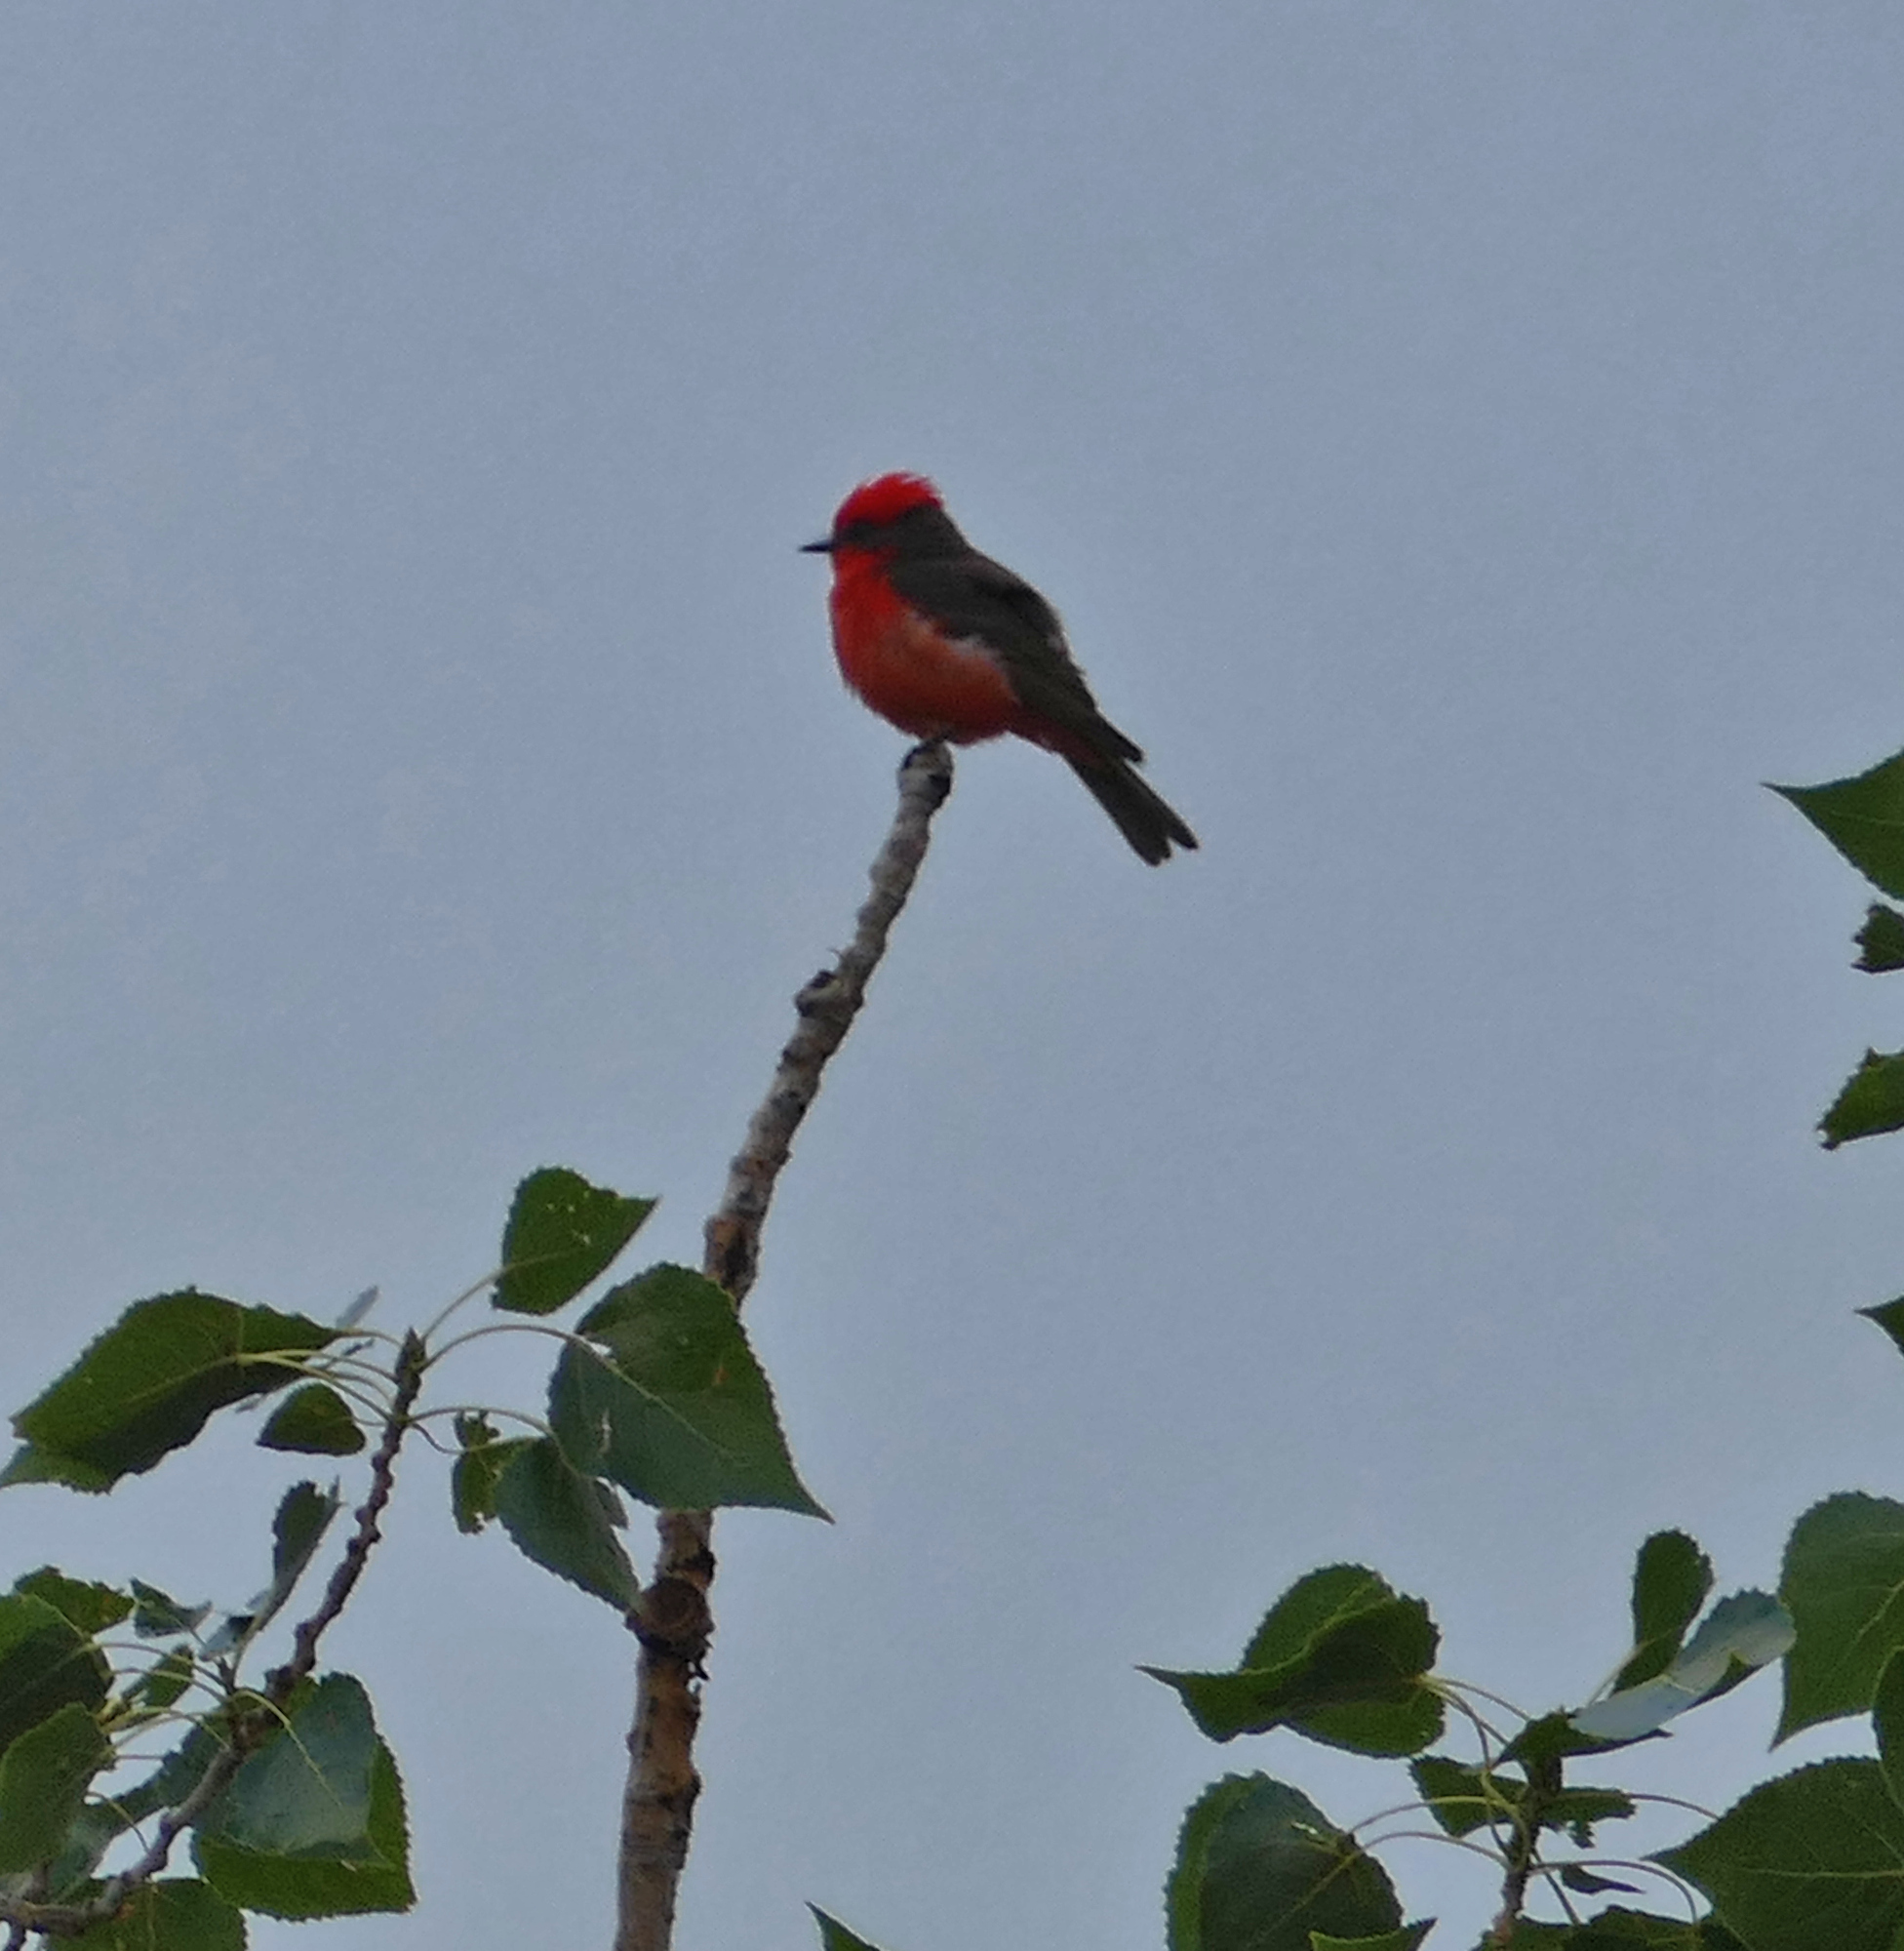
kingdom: Animalia
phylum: Chordata
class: Aves
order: Passeriformes
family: Tyrannidae
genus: Pyrocephalus
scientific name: Pyrocephalus rubinus
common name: Vermilion flycatcher
